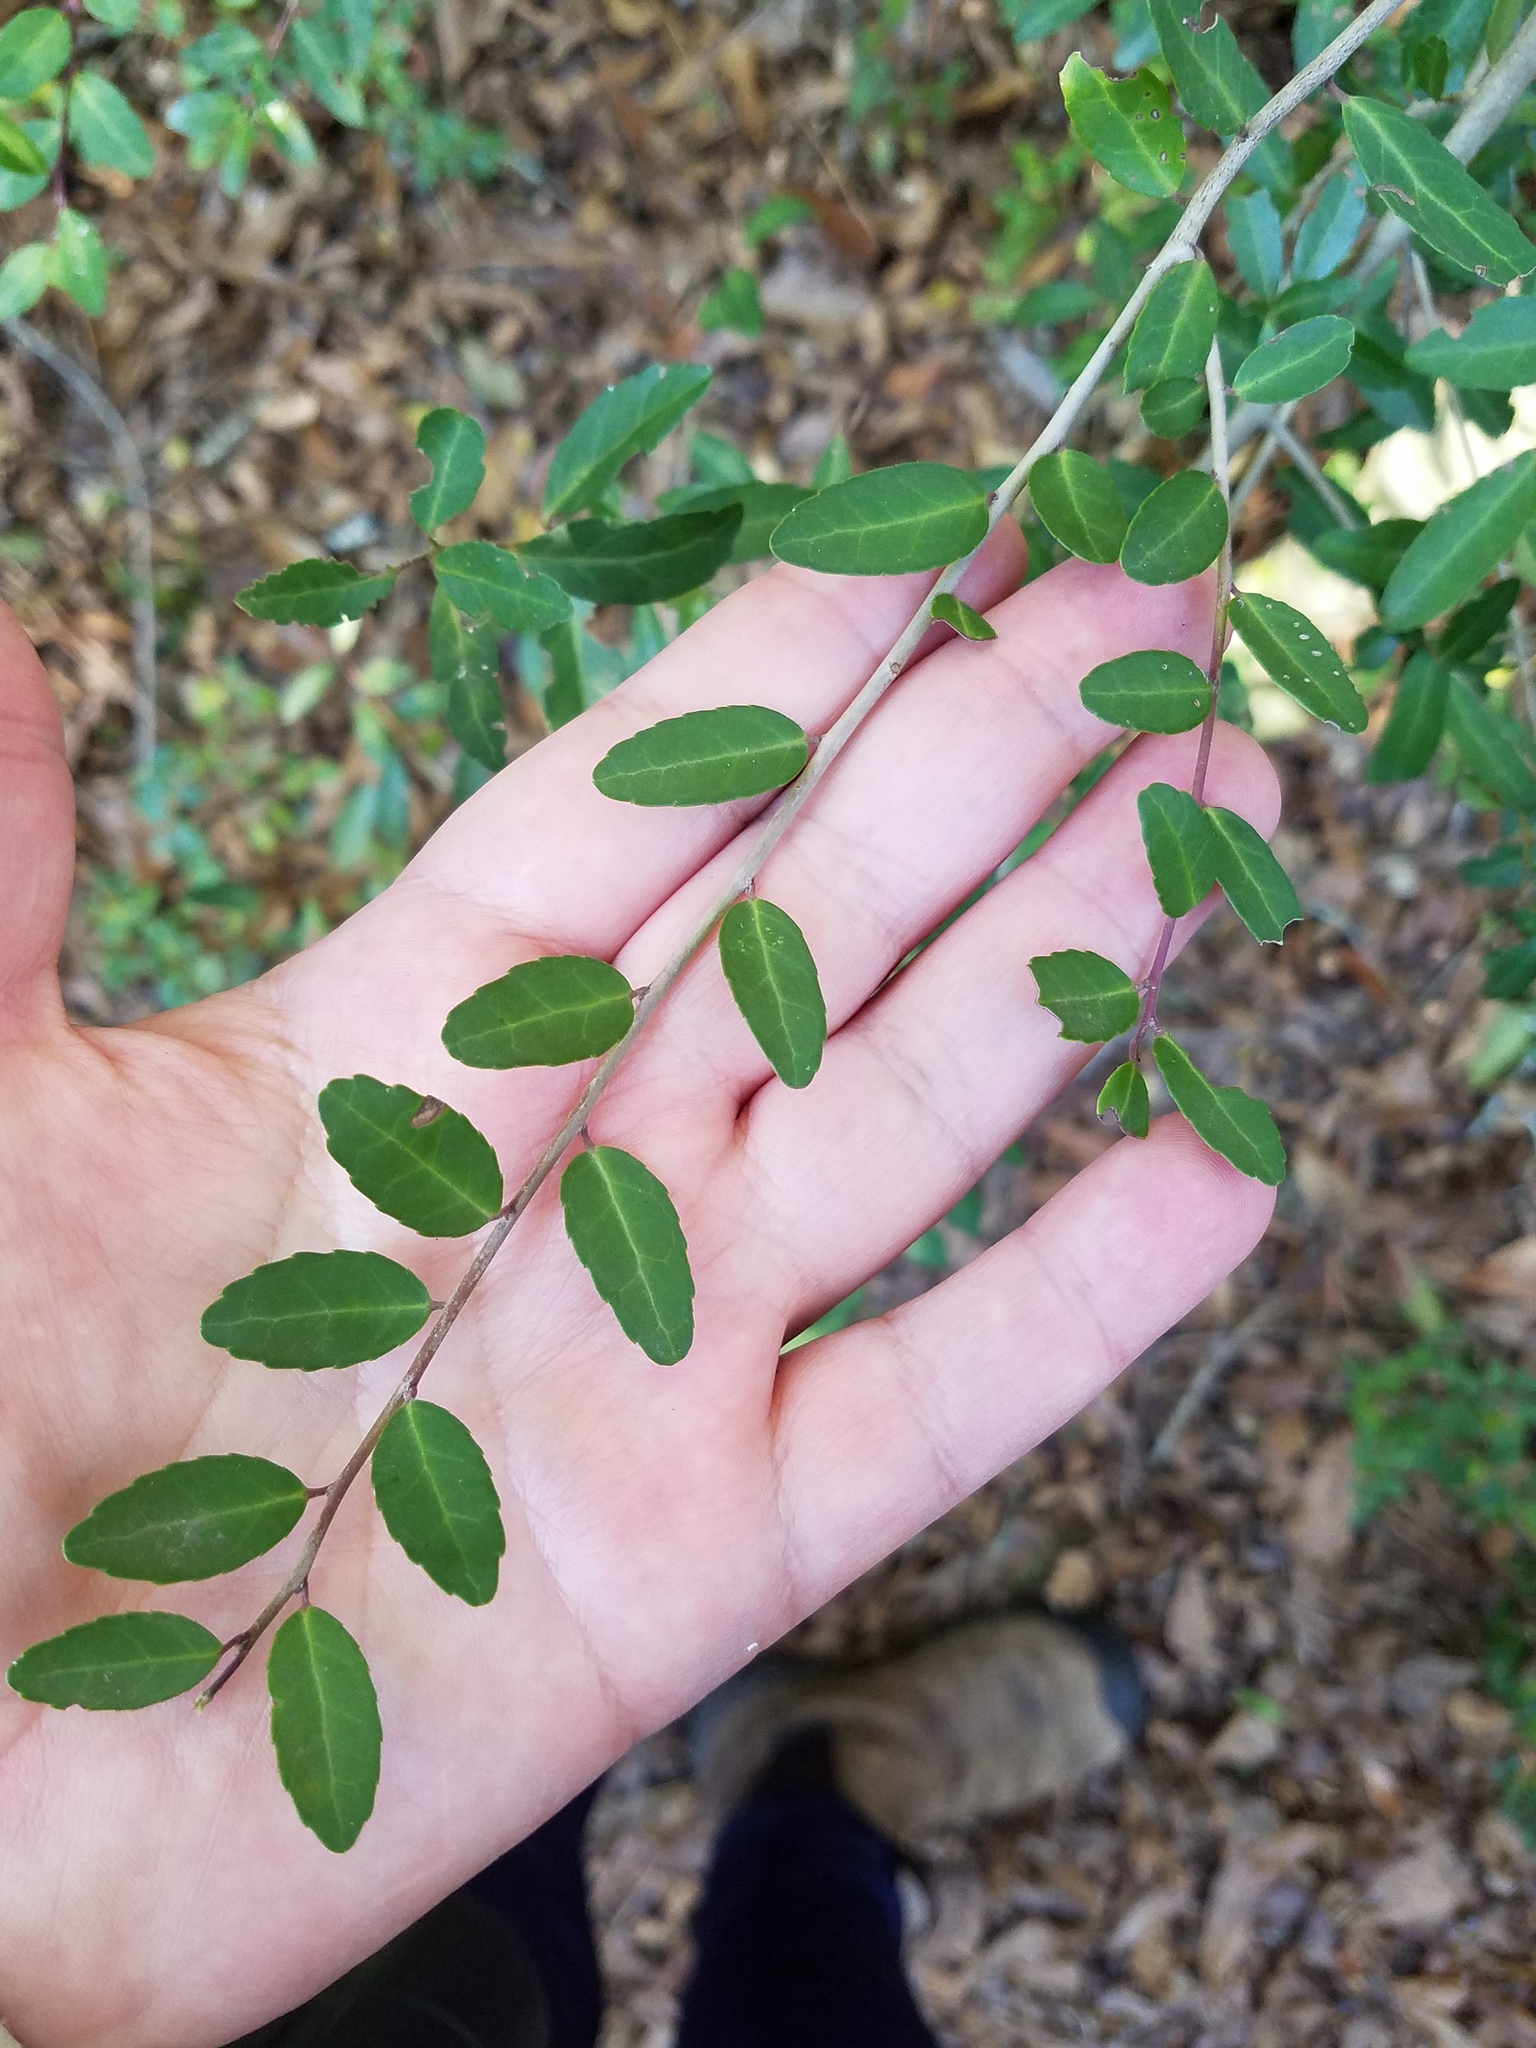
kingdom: Plantae
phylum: Tracheophyta
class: Magnoliopsida
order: Aquifoliales
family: Aquifoliaceae
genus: Ilex
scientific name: Ilex vomitoria
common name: Yaupon holly
